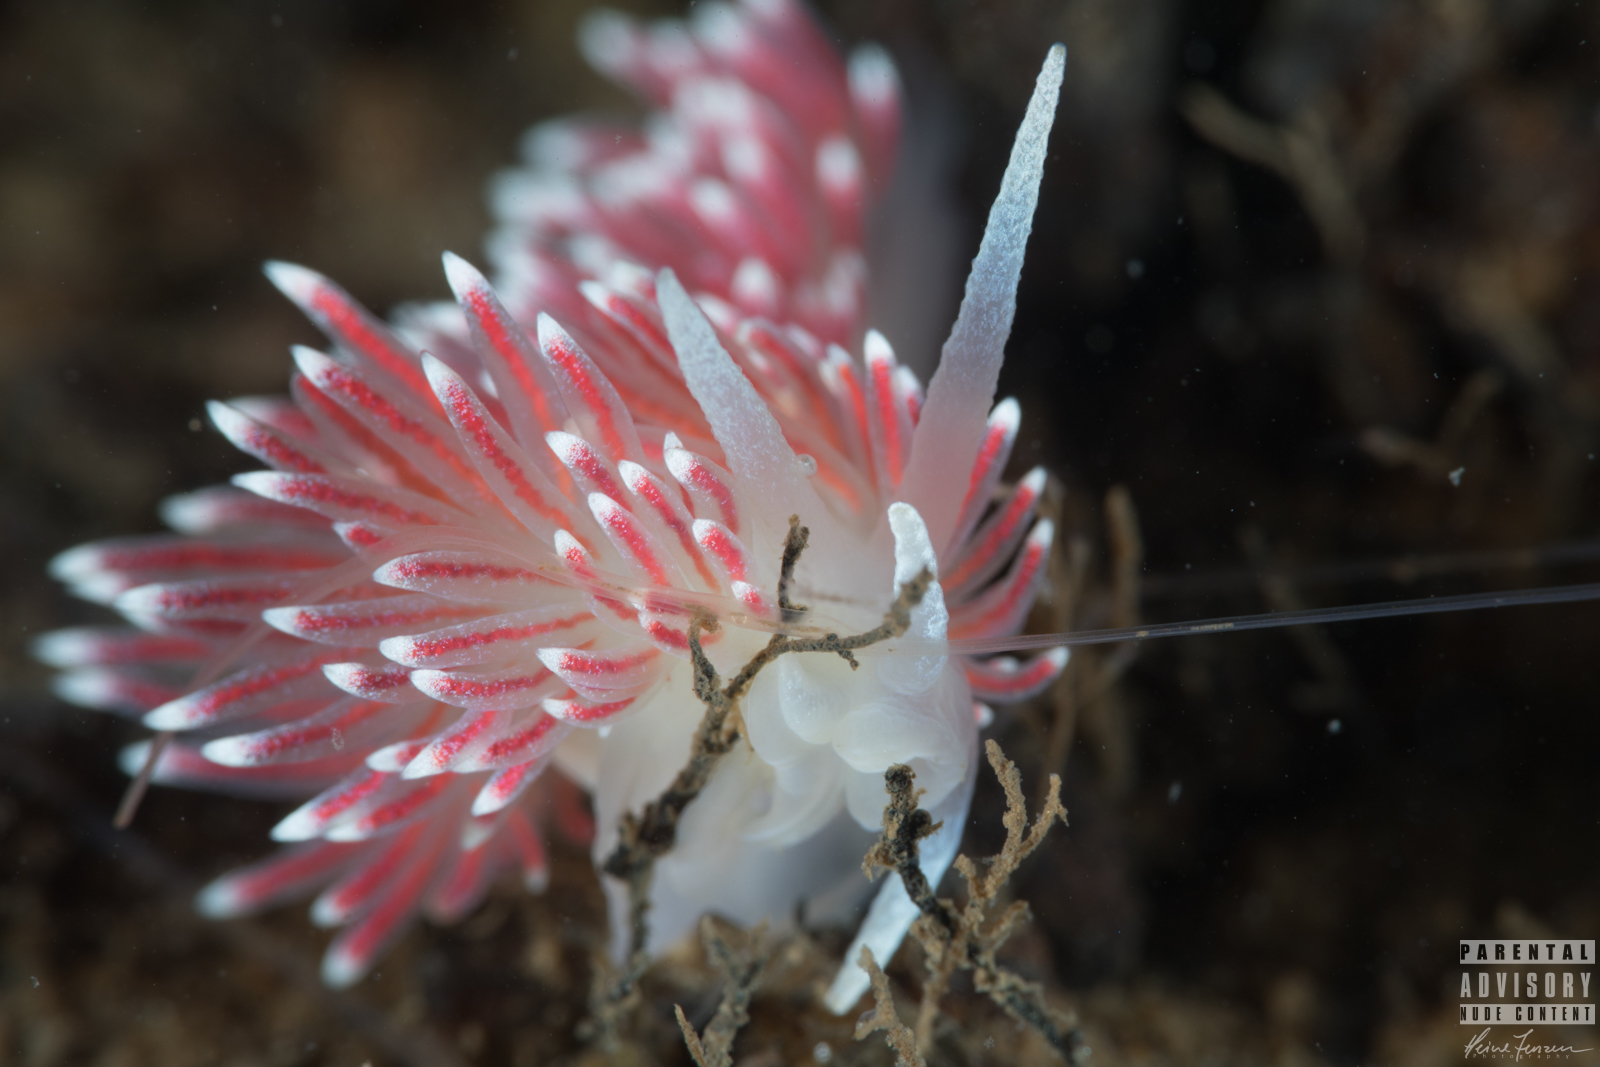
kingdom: Animalia
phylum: Mollusca
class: Gastropoda
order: Nudibranchia
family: Flabellinidae
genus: Carronella
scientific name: Carronella pellucida
